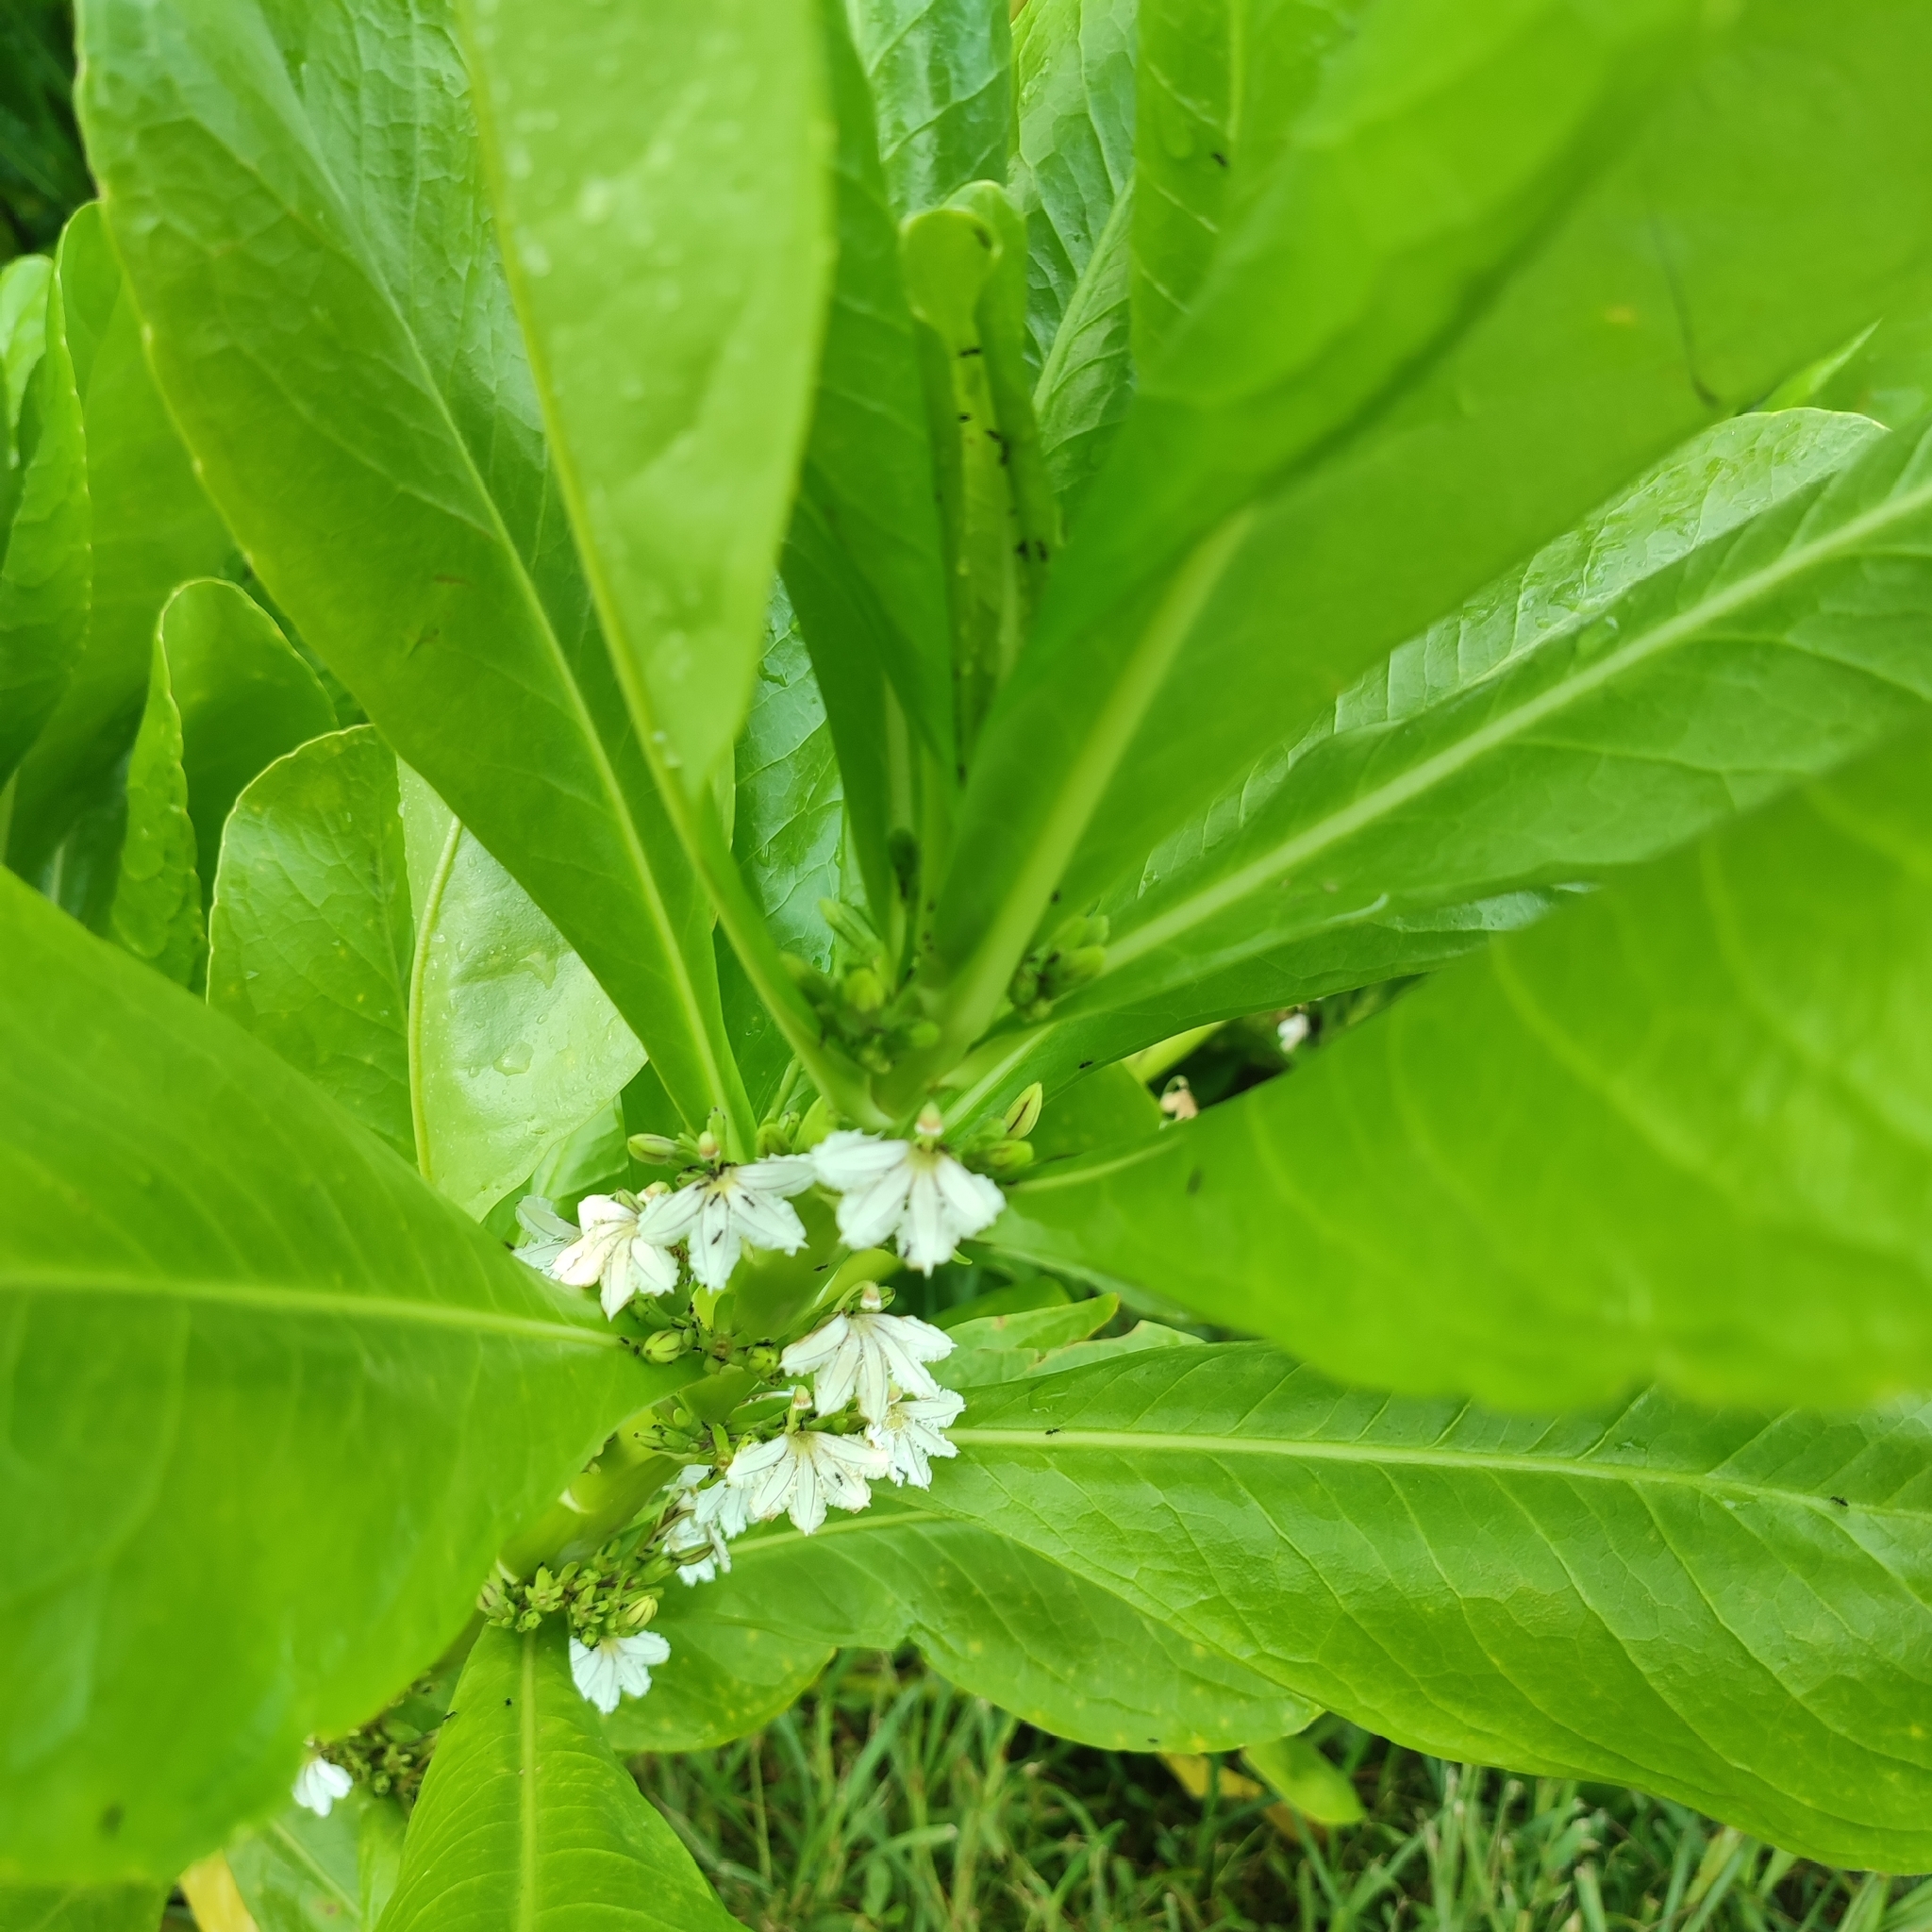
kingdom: Plantae
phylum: Tracheophyta
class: Magnoliopsida
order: Asterales
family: Goodeniaceae
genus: Scaevola
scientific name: Scaevola taccada
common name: Sea lettucetree
